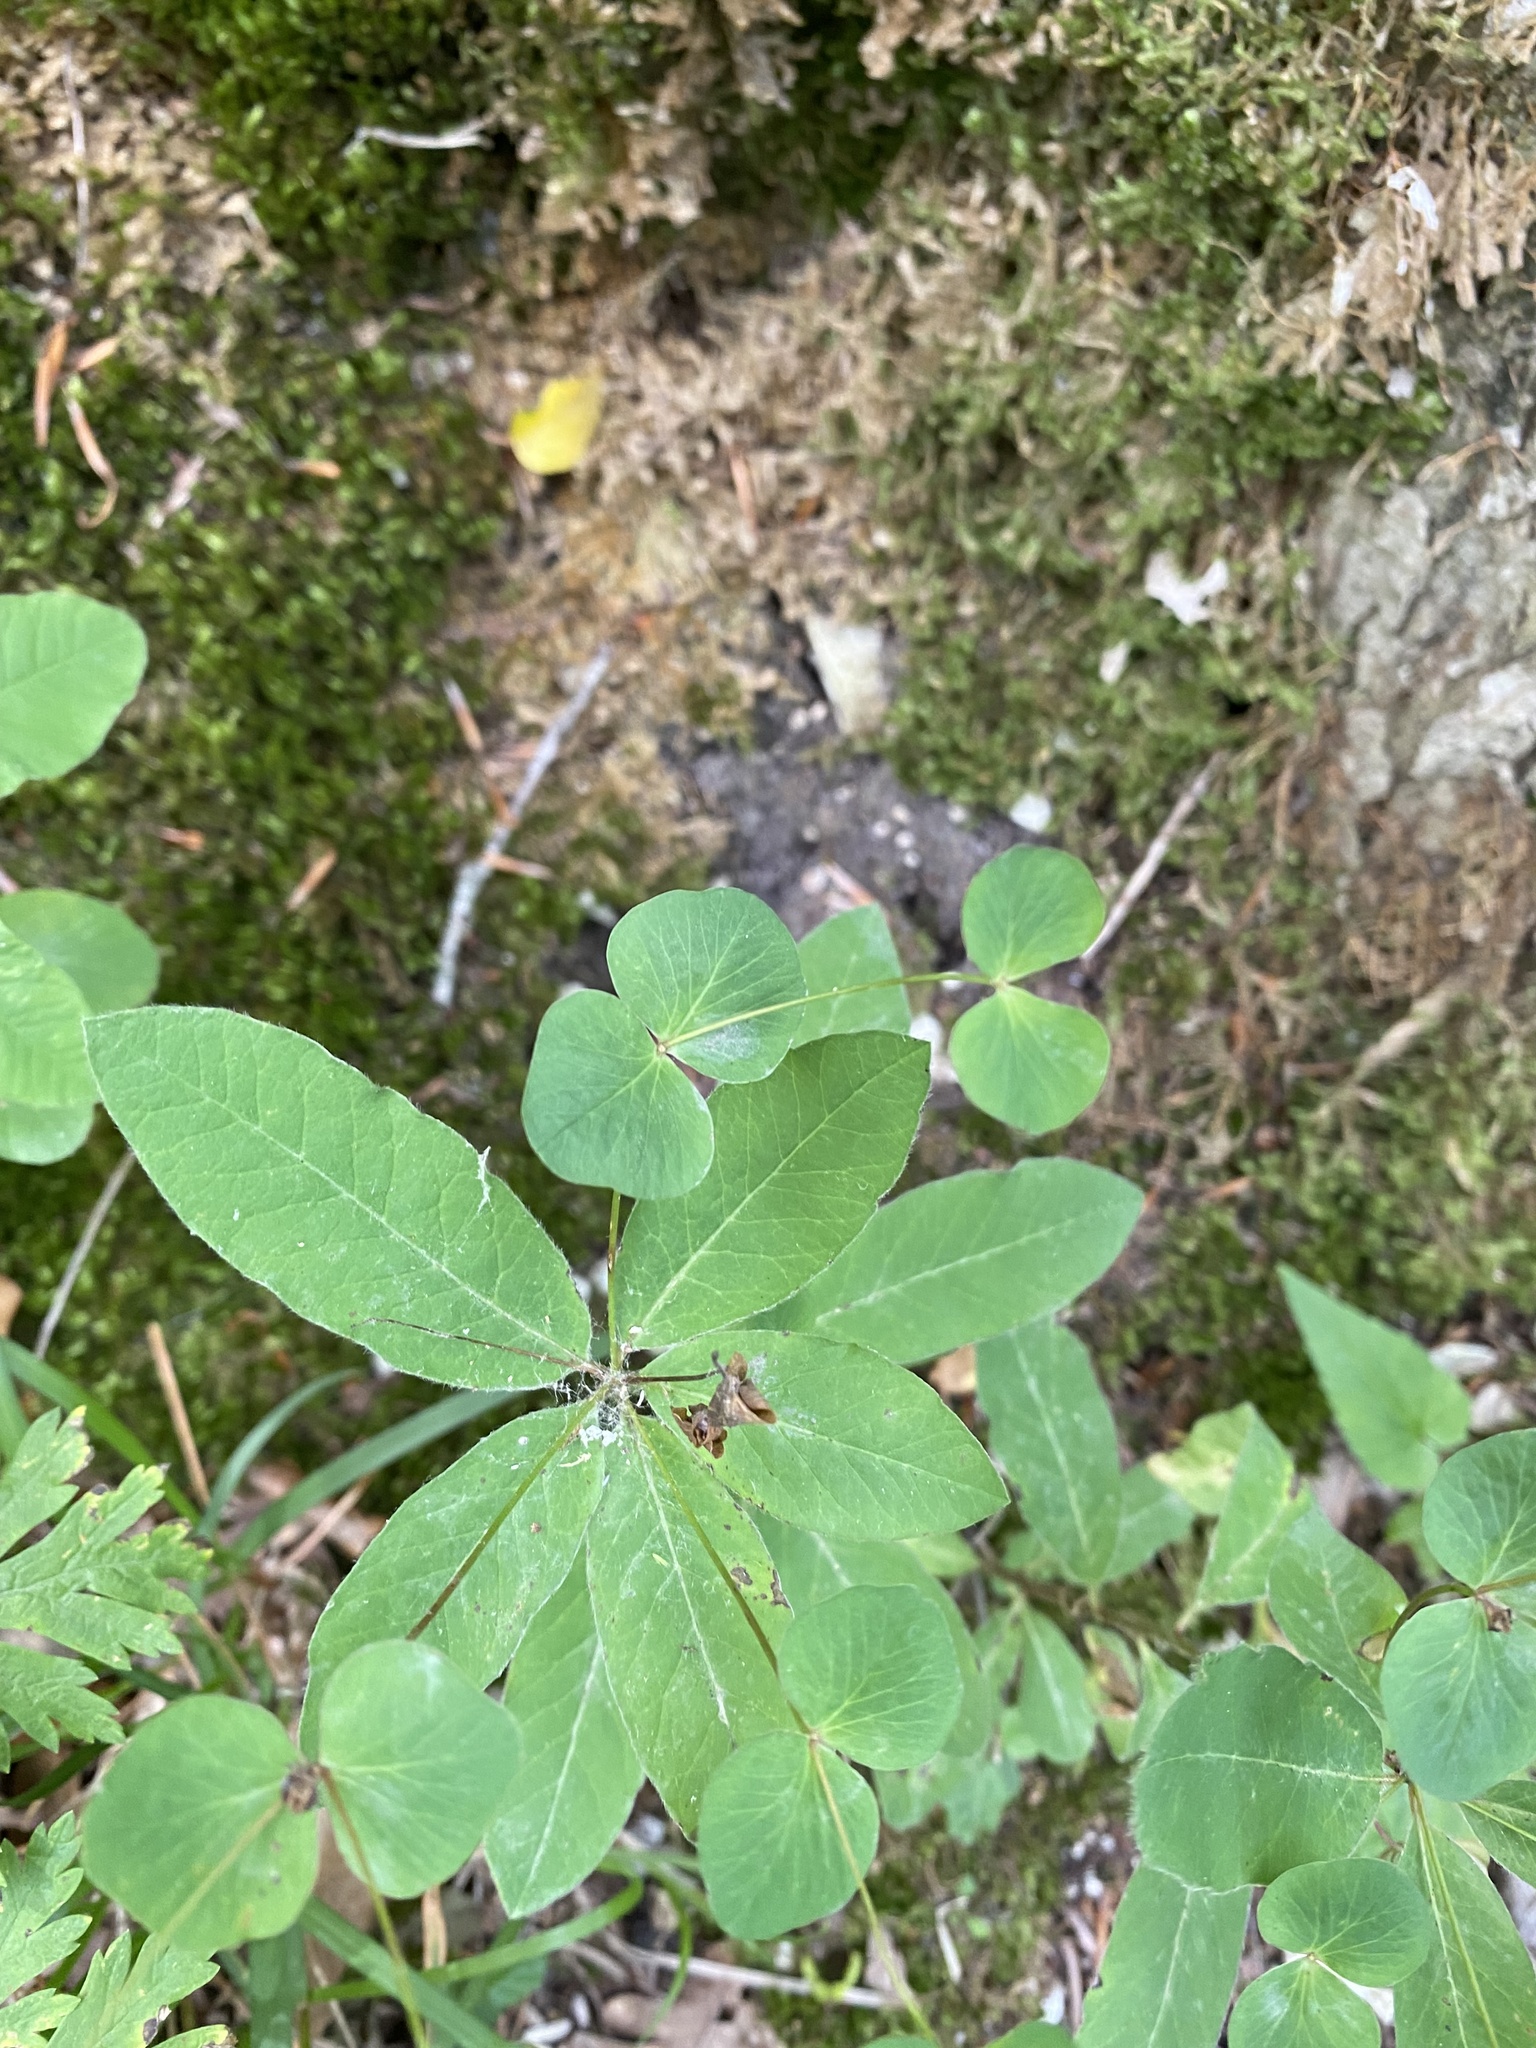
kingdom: Plantae
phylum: Tracheophyta
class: Magnoliopsida
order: Malpighiales
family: Euphorbiaceae
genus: Euphorbia
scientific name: Euphorbia squamosa
